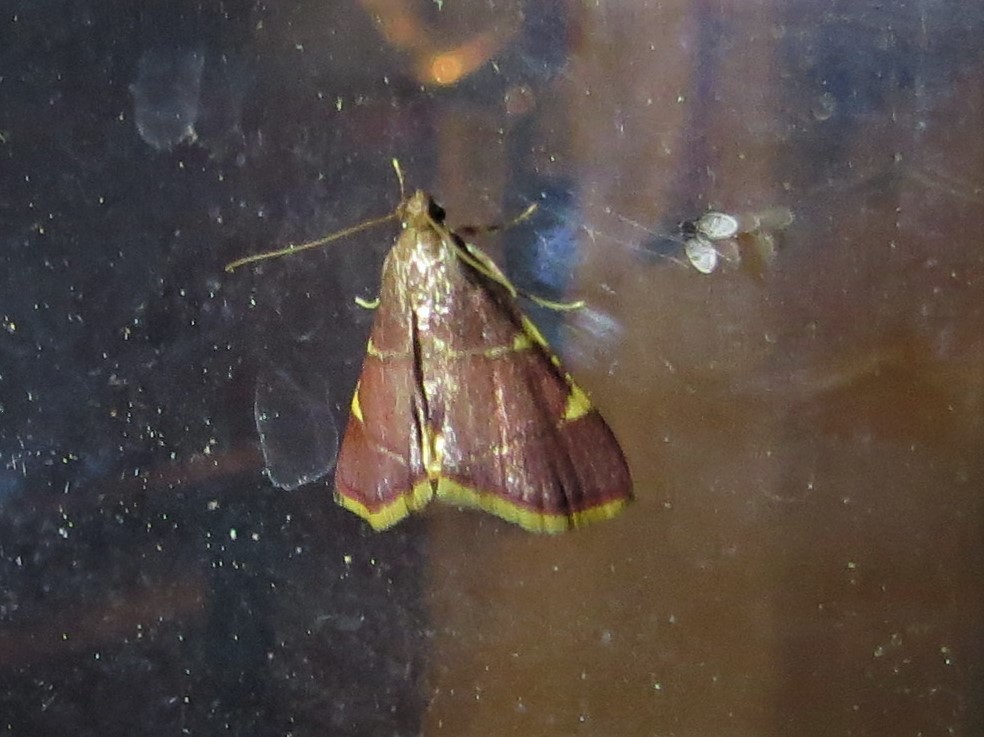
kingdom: Animalia
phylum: Arthropoda
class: Insecta
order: Lepidoptera
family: Pyralidae
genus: Hypsopygia
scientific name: Hypsopygia olinalis
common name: Yellow-fringed dolichomia moth
